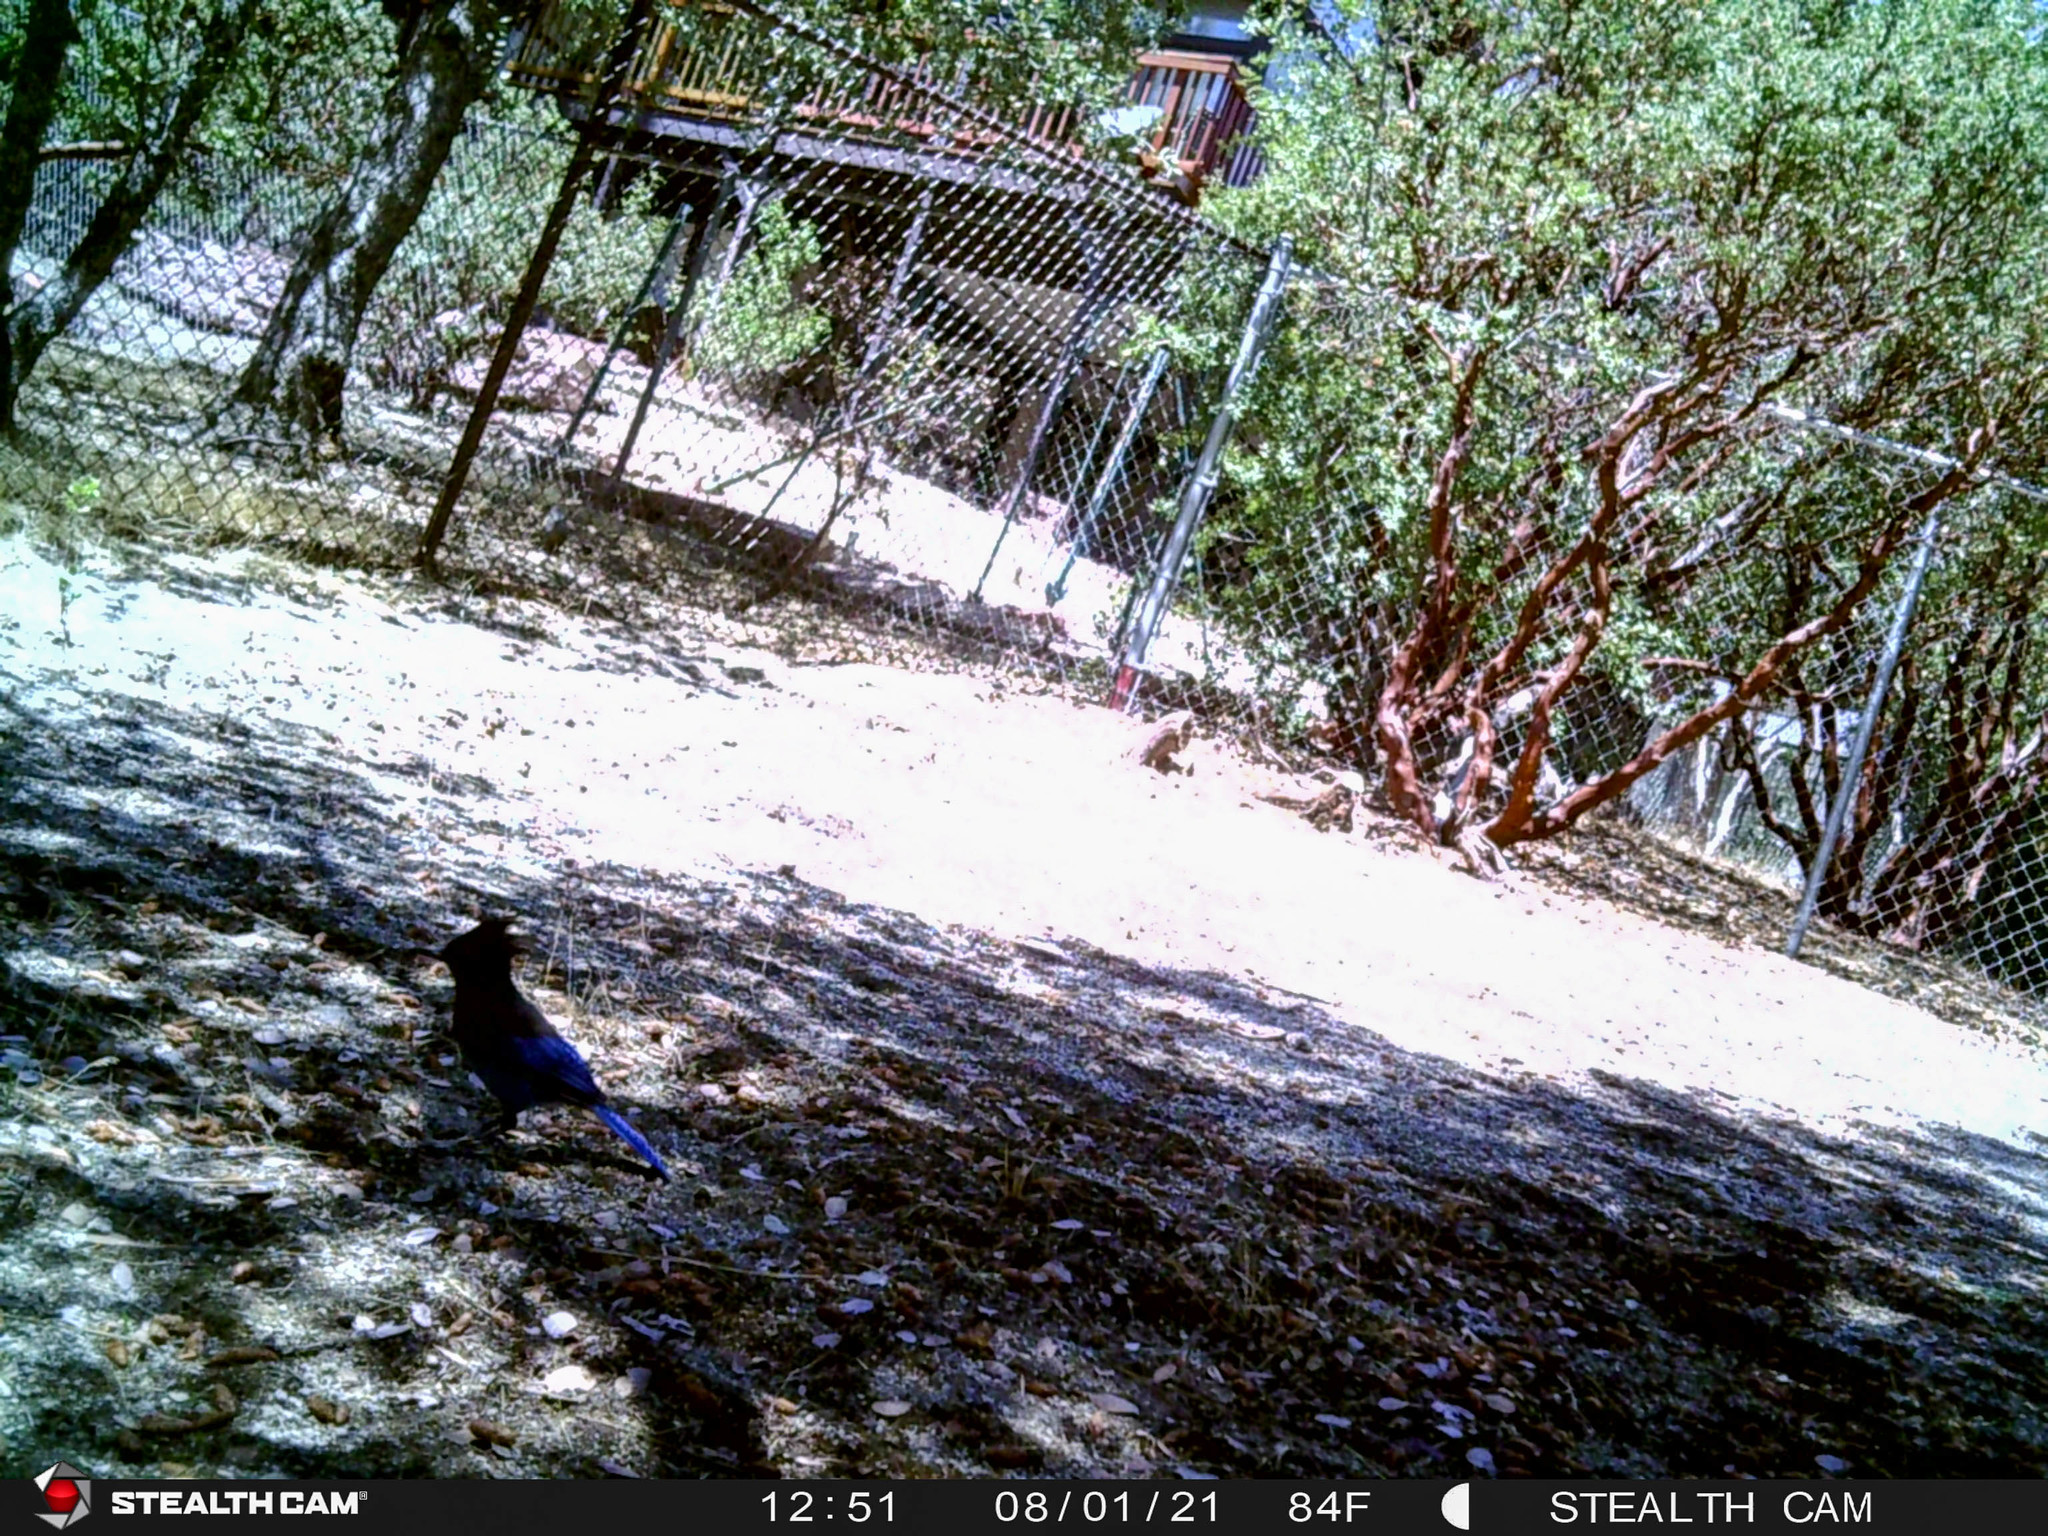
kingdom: Animalia
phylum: Chordata
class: Aves
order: Passeriformes
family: Corvidae
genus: Cyanocitta
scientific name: Cyanocitta stelleri
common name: Steller's jay
